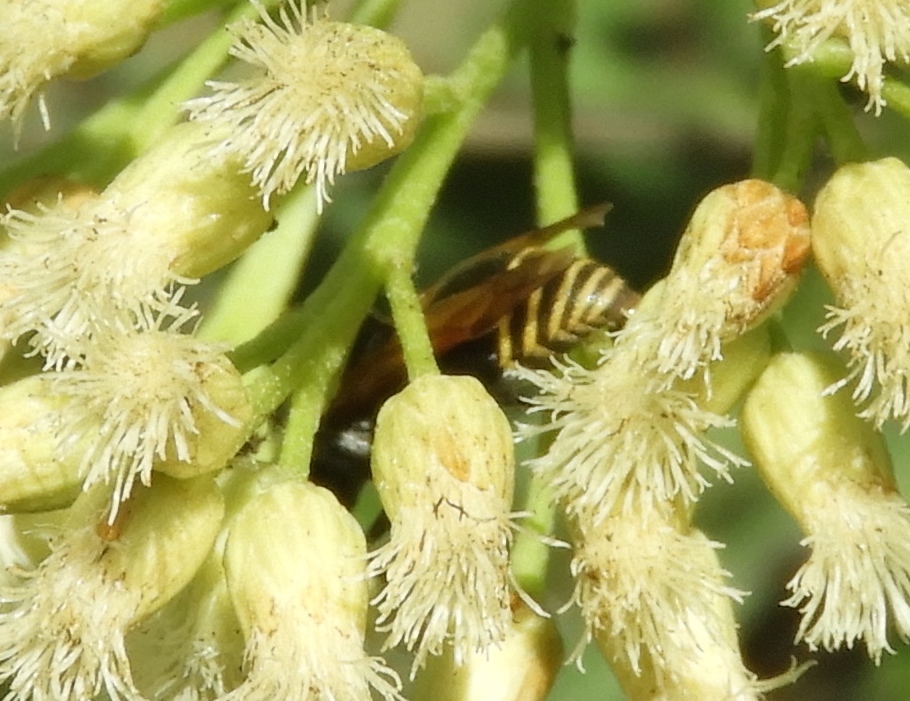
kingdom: Animalia
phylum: Arthropoda
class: Insecta
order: Hymenoptera
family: Vespidae
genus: Brachygastra
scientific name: Brachygastra mellifica
